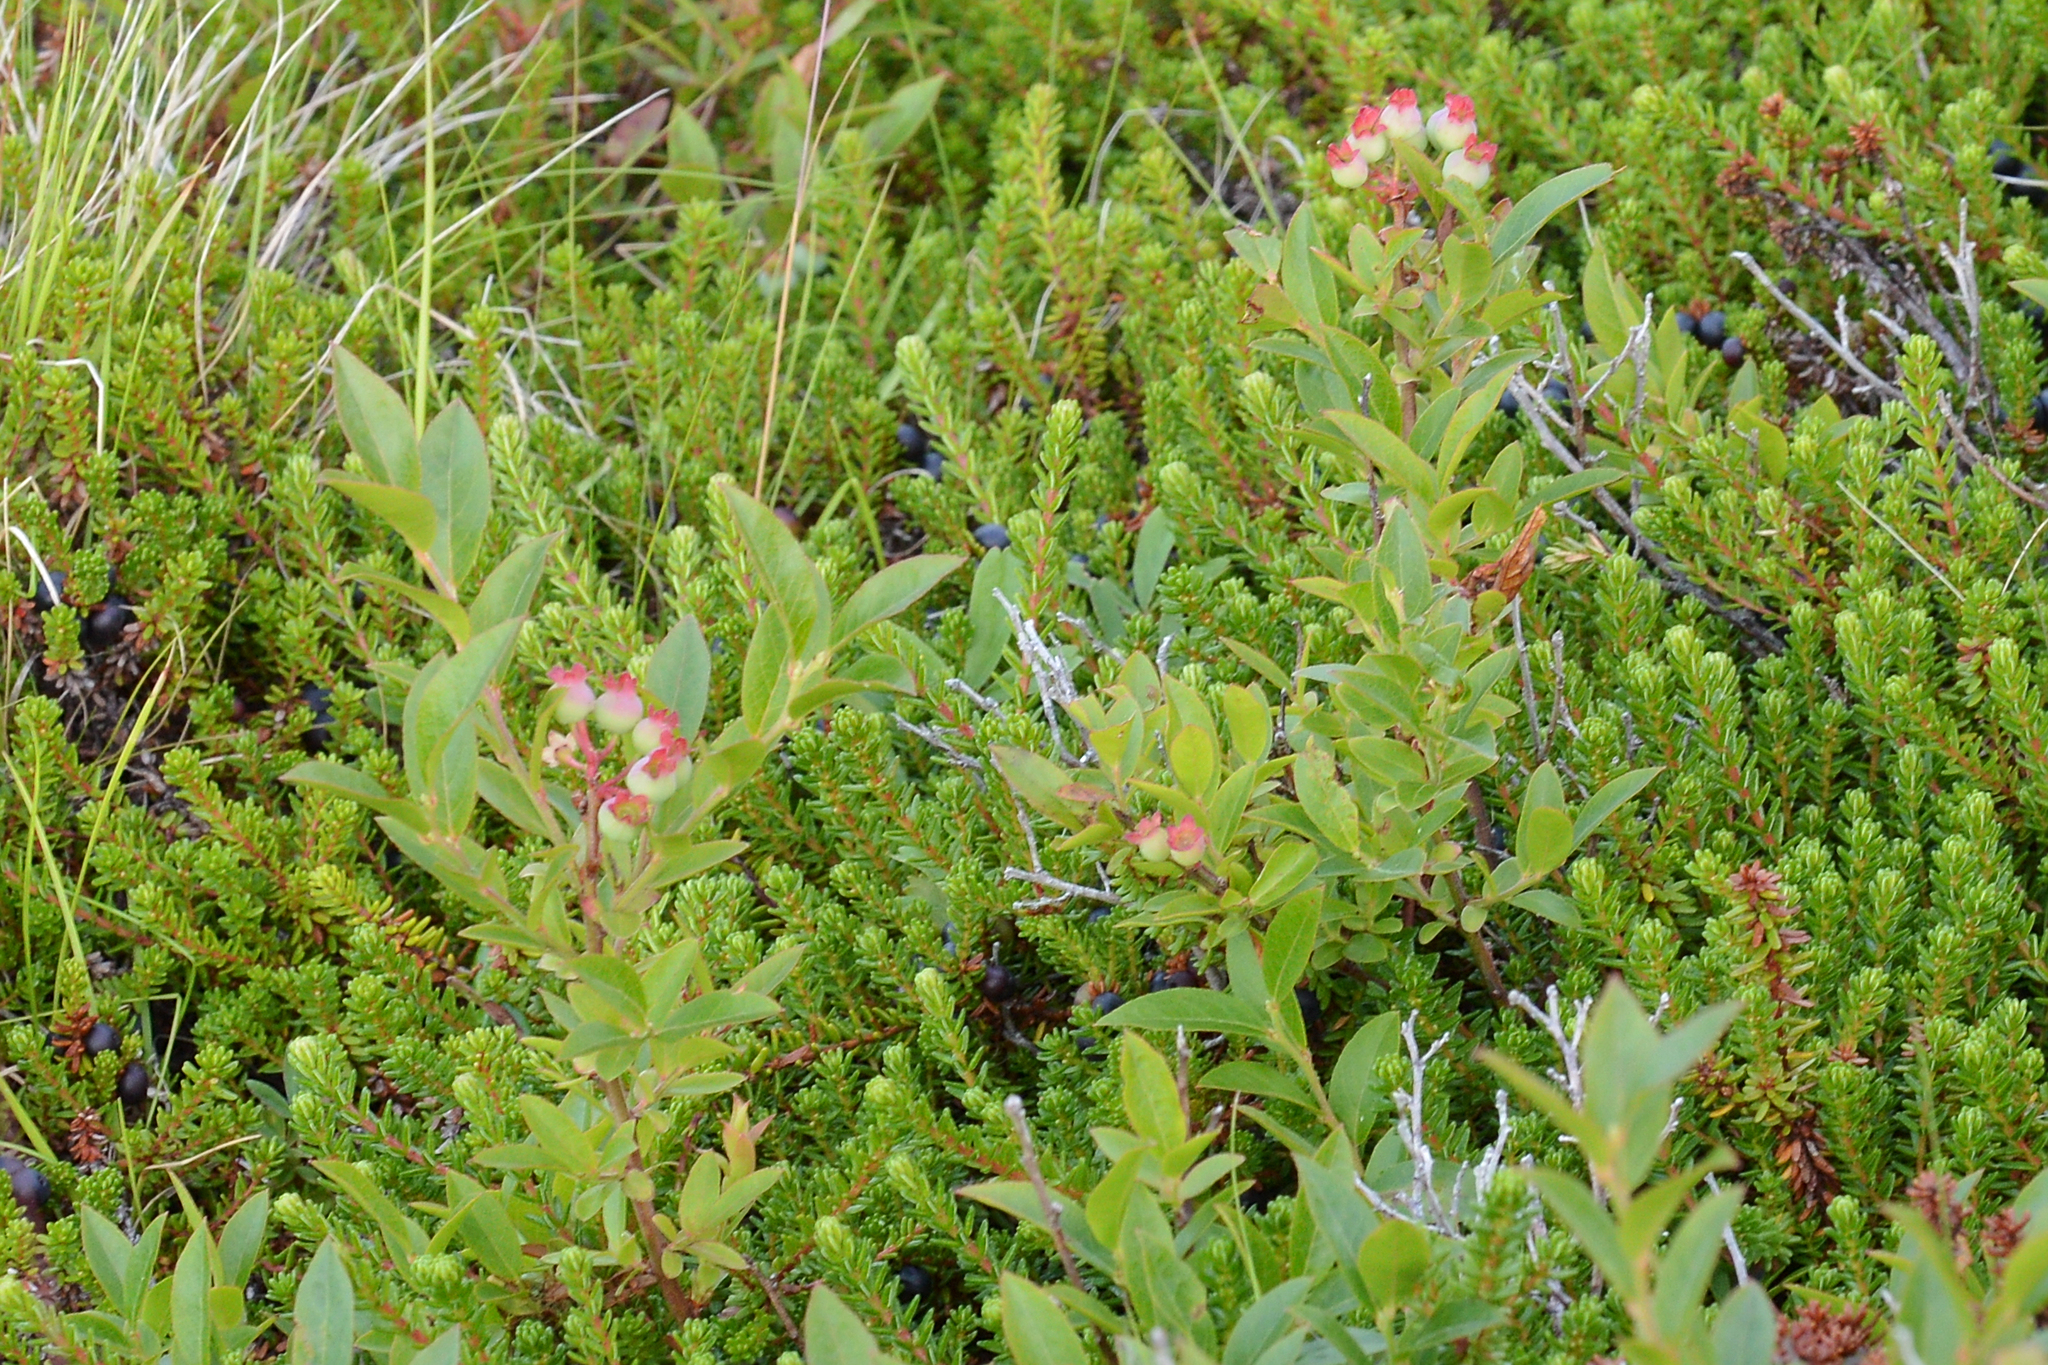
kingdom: Plantae
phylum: Tracheophyta
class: Magnoliopsida
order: Ericales
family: Ericaceae
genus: Vaccinium
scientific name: Vaccinium angustifolium
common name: Early lowbush blueberry
